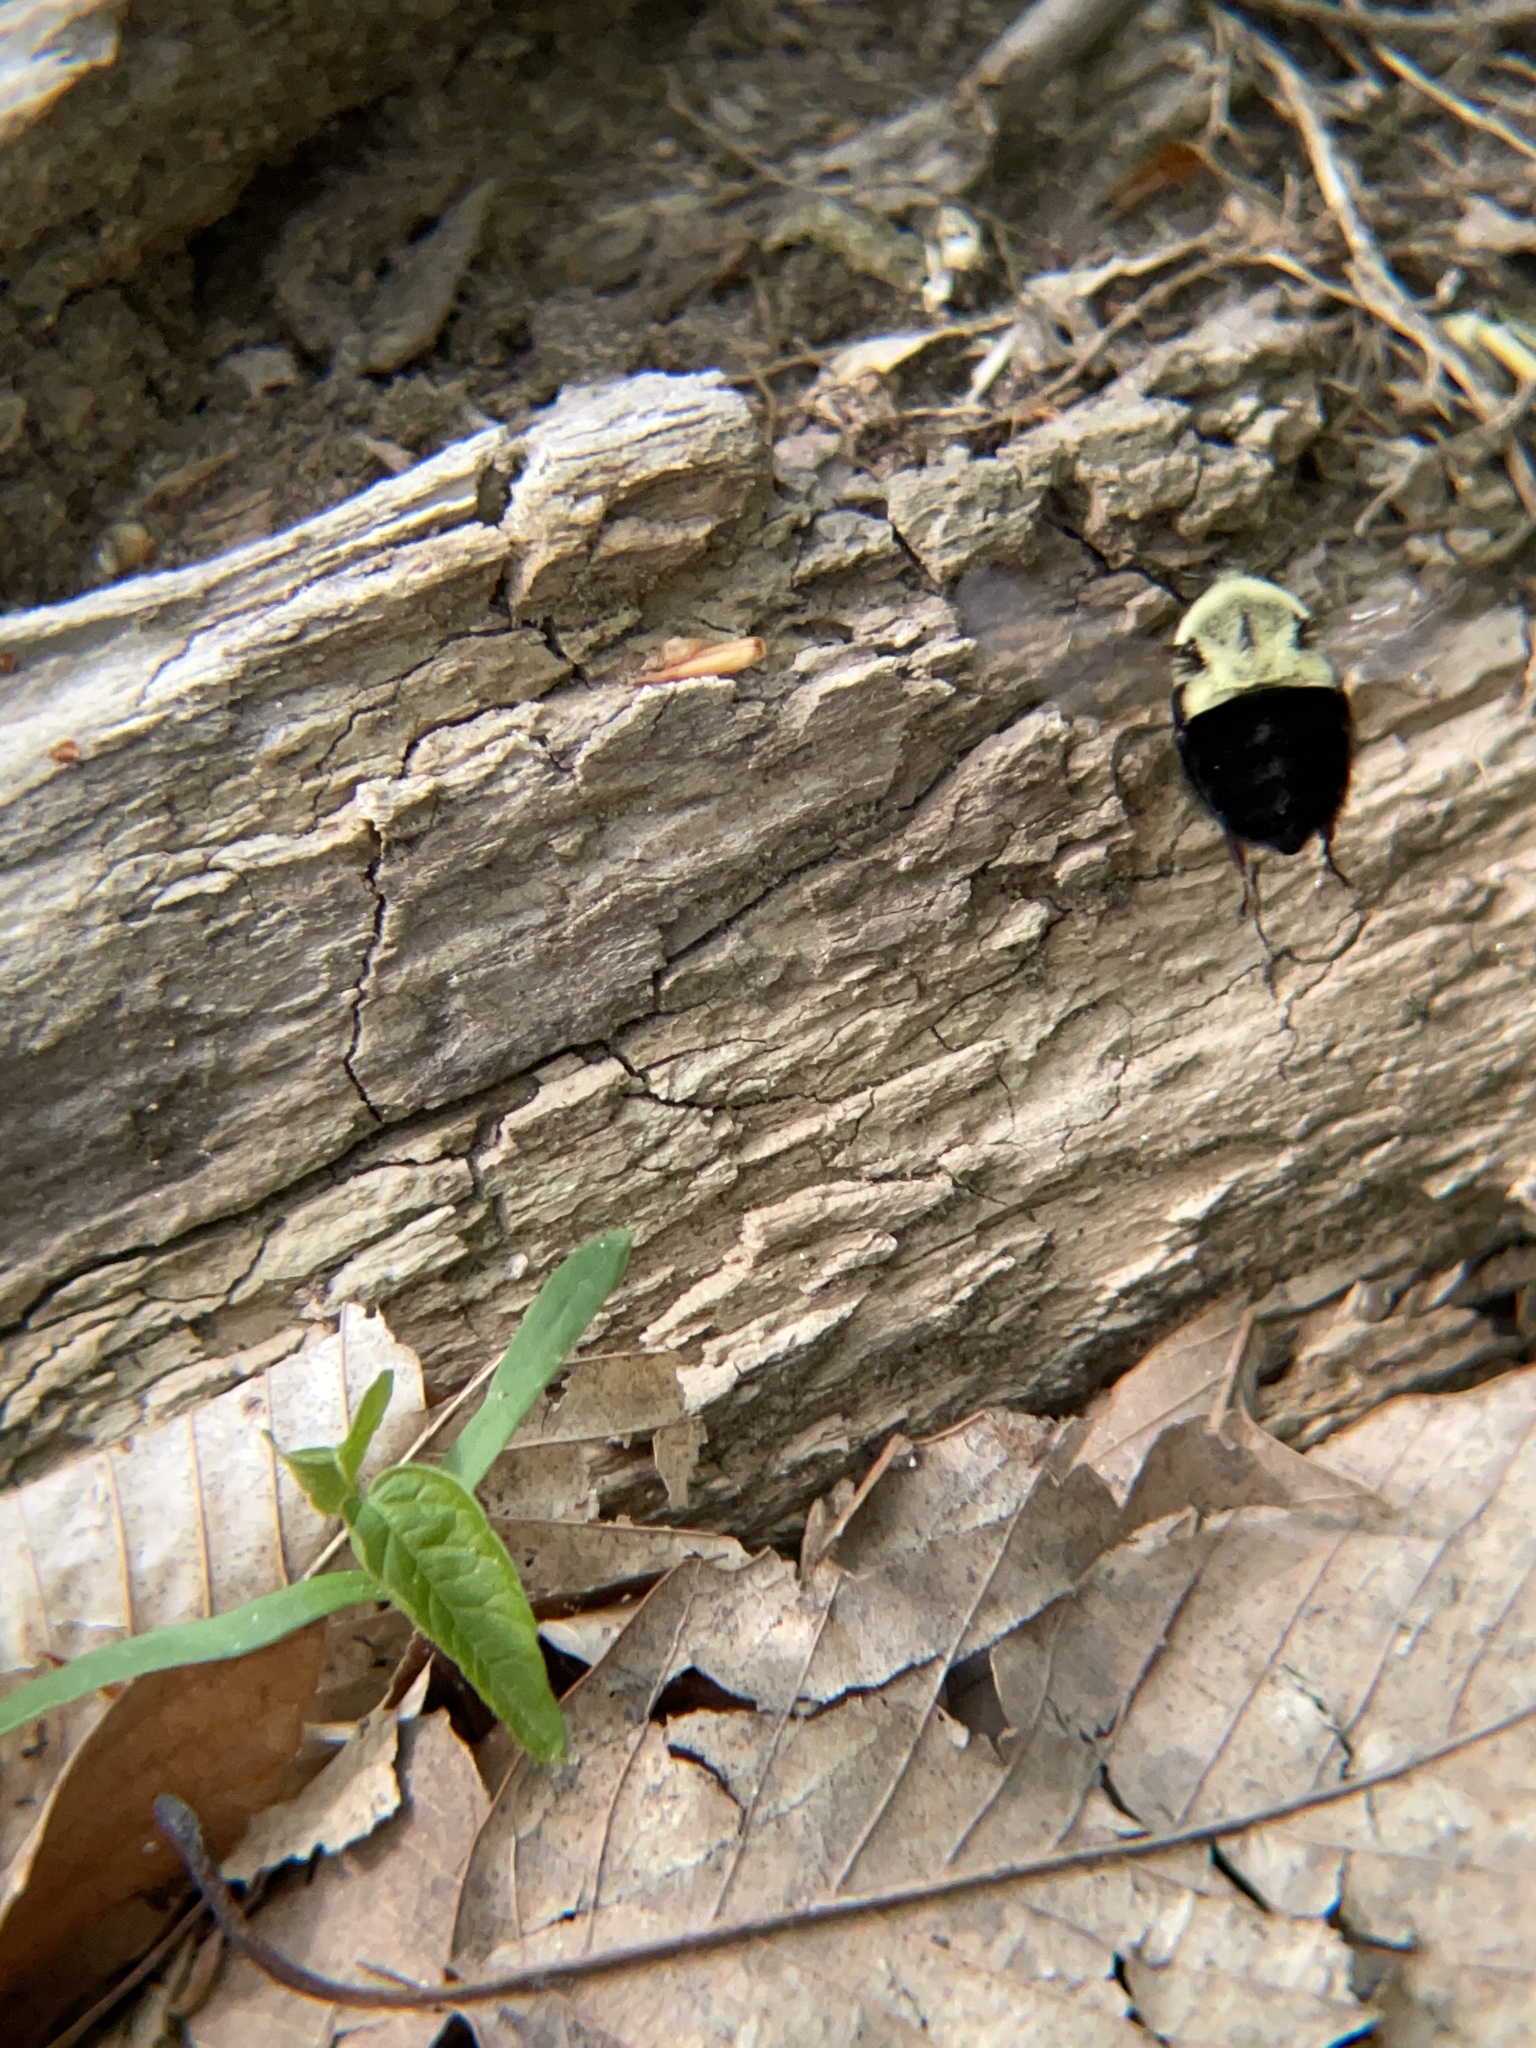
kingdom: Animalia
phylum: Arthropoda
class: Insecta
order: Hymenoptera
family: Apidae
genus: Bombus
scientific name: Bombus impatiens
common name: Common eastern bumble bee
